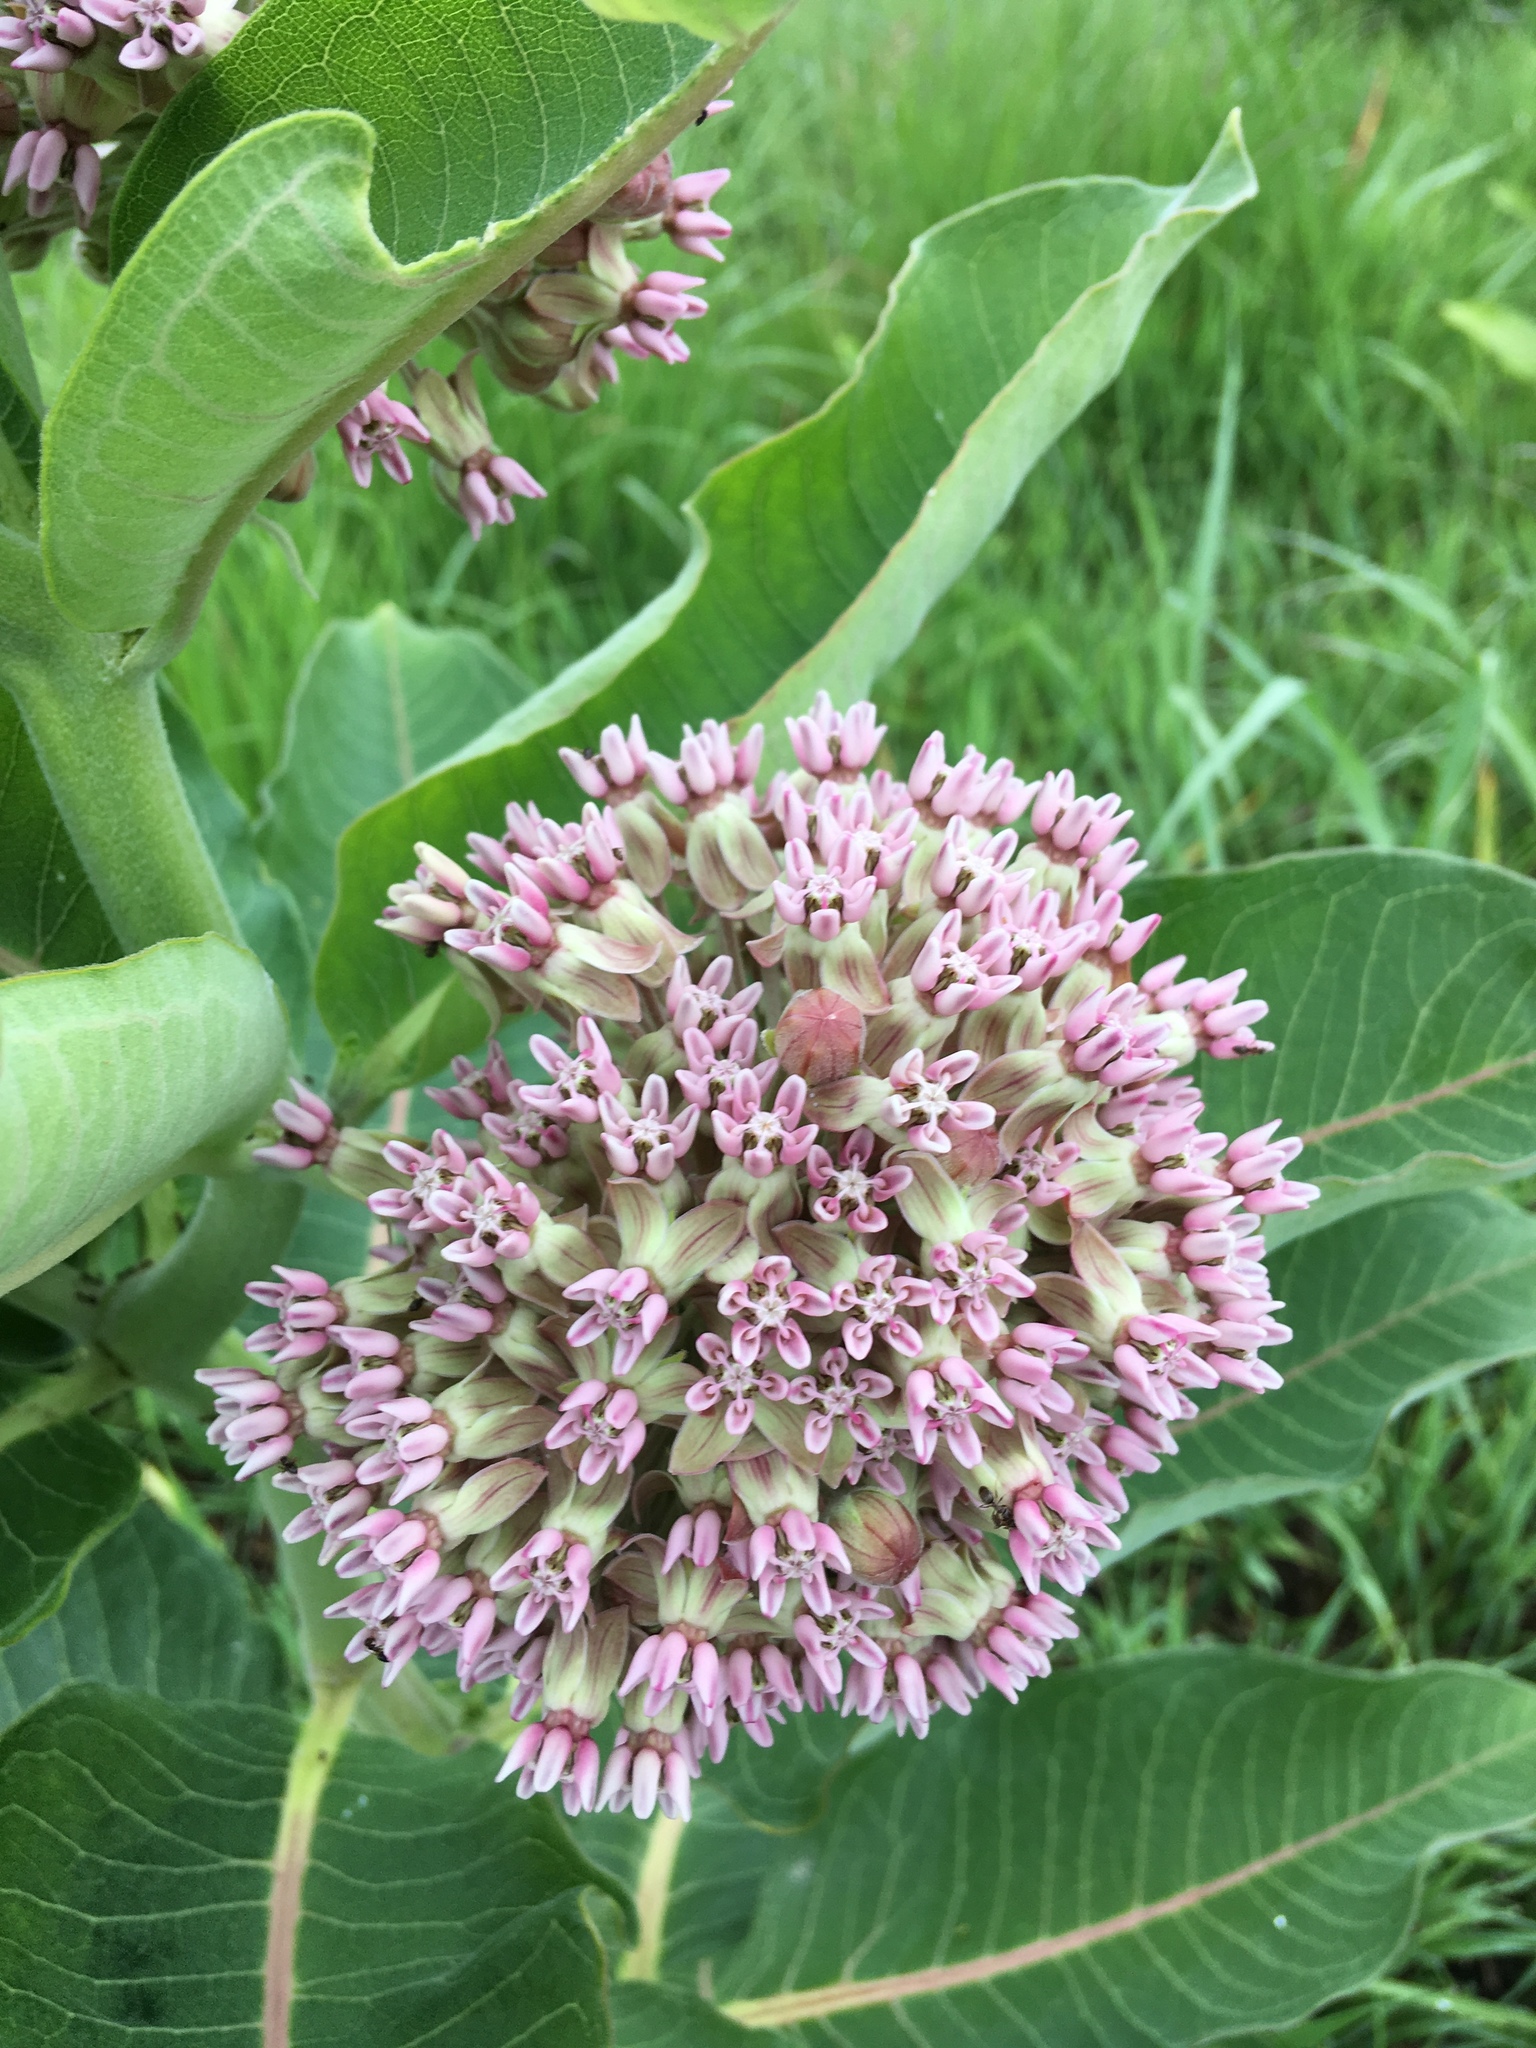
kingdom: Plantae
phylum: Tracheophyta
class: Magnoliopsida
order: Gentianales
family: Apocynaceae
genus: Asclepias
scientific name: Asclepias syriaca
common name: Common milkweed
